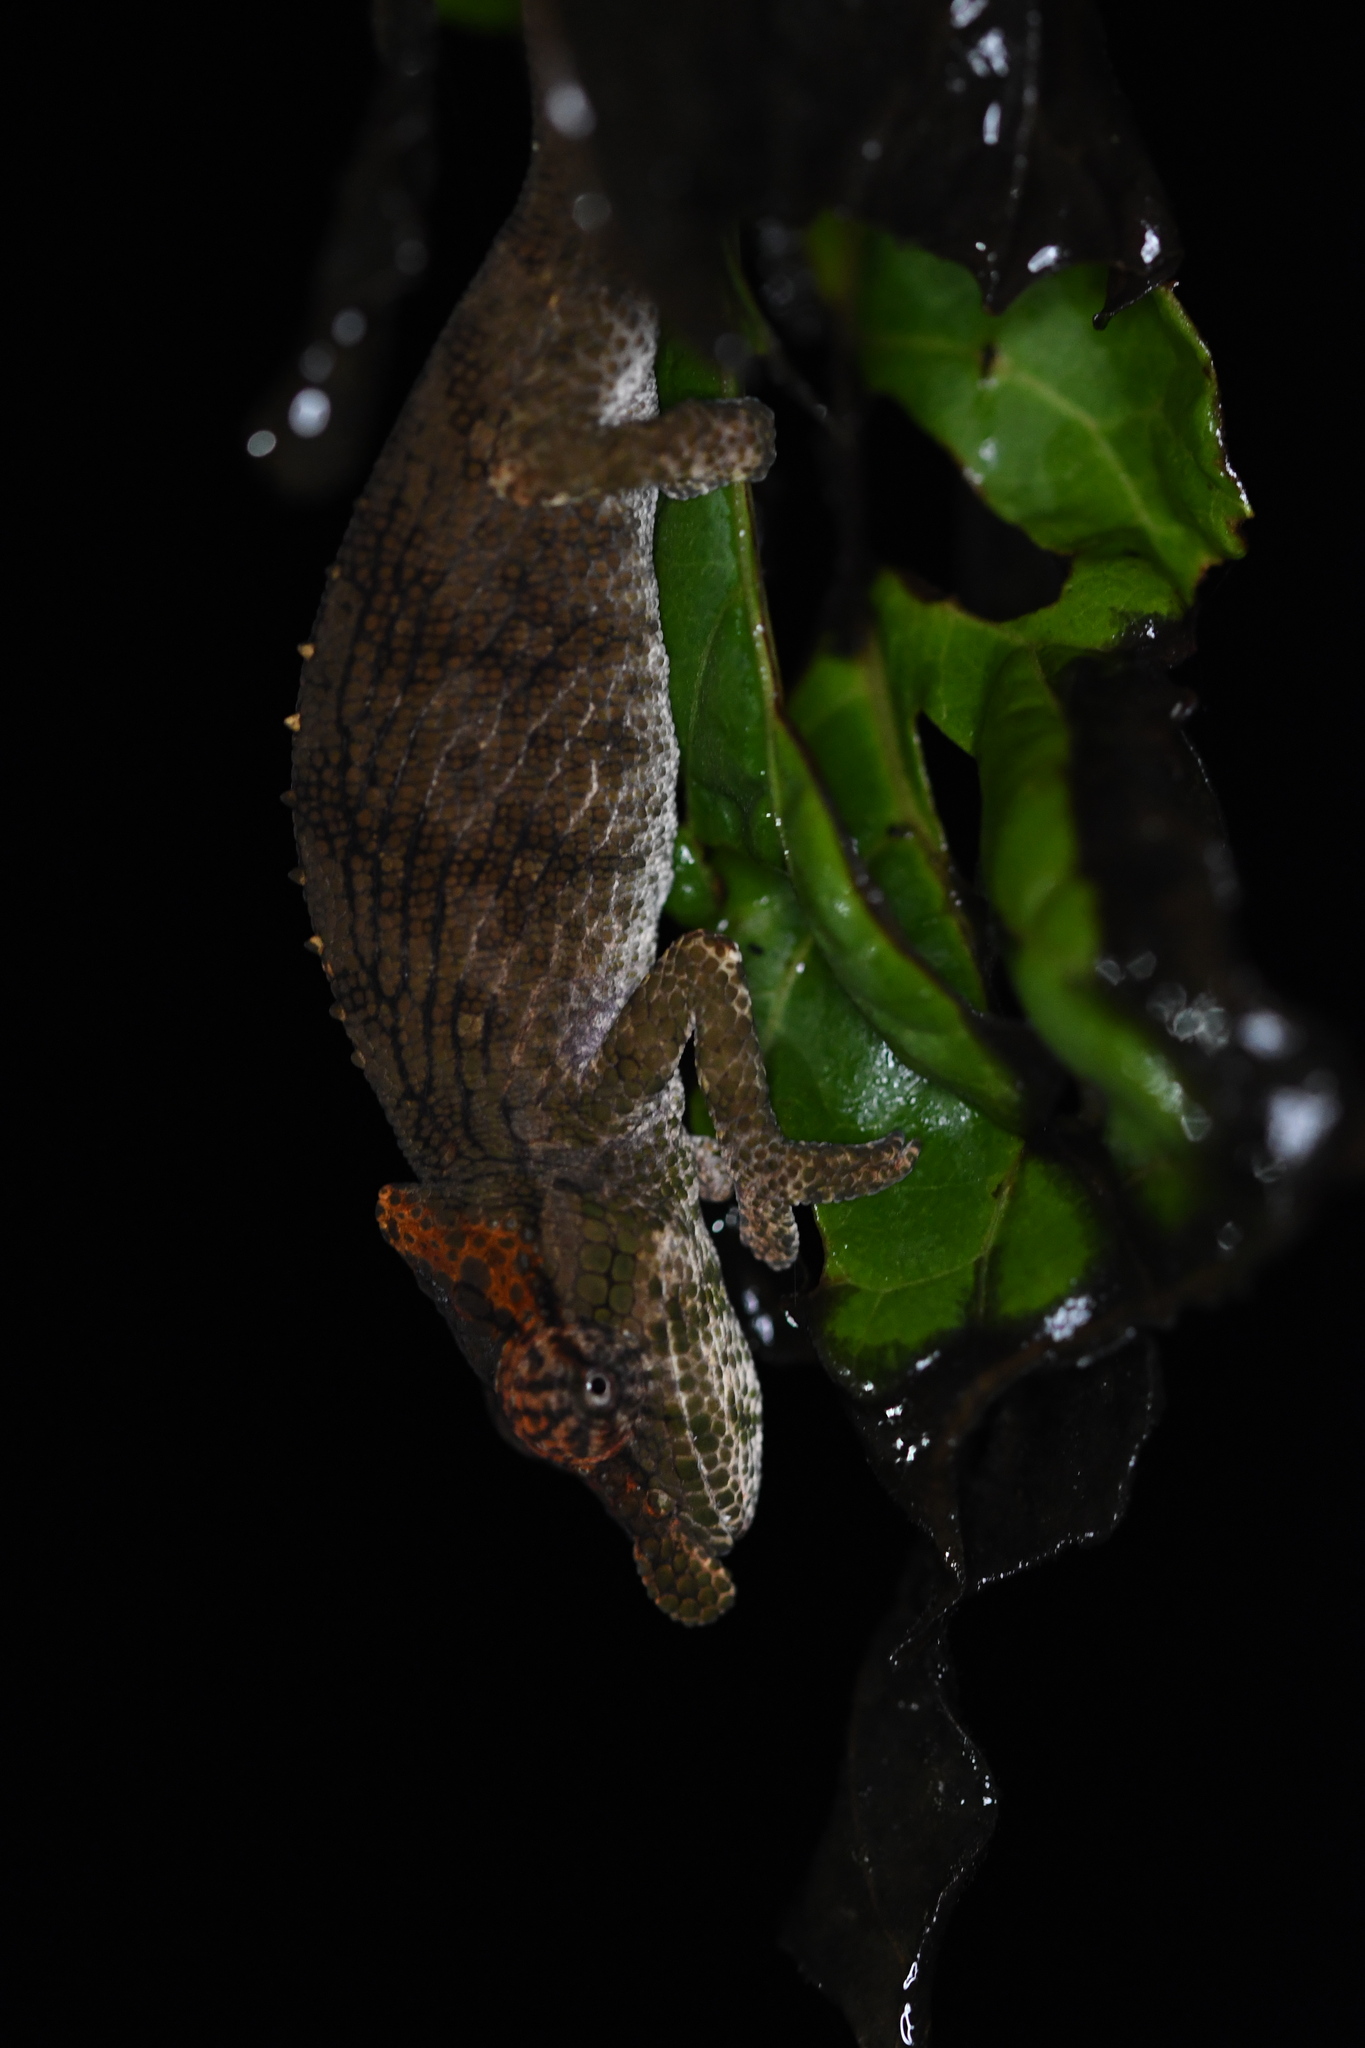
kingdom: Animalia
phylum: Chordata
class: Squamata
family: Chamaeleonidae
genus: Calumma
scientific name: Calumma fallax
